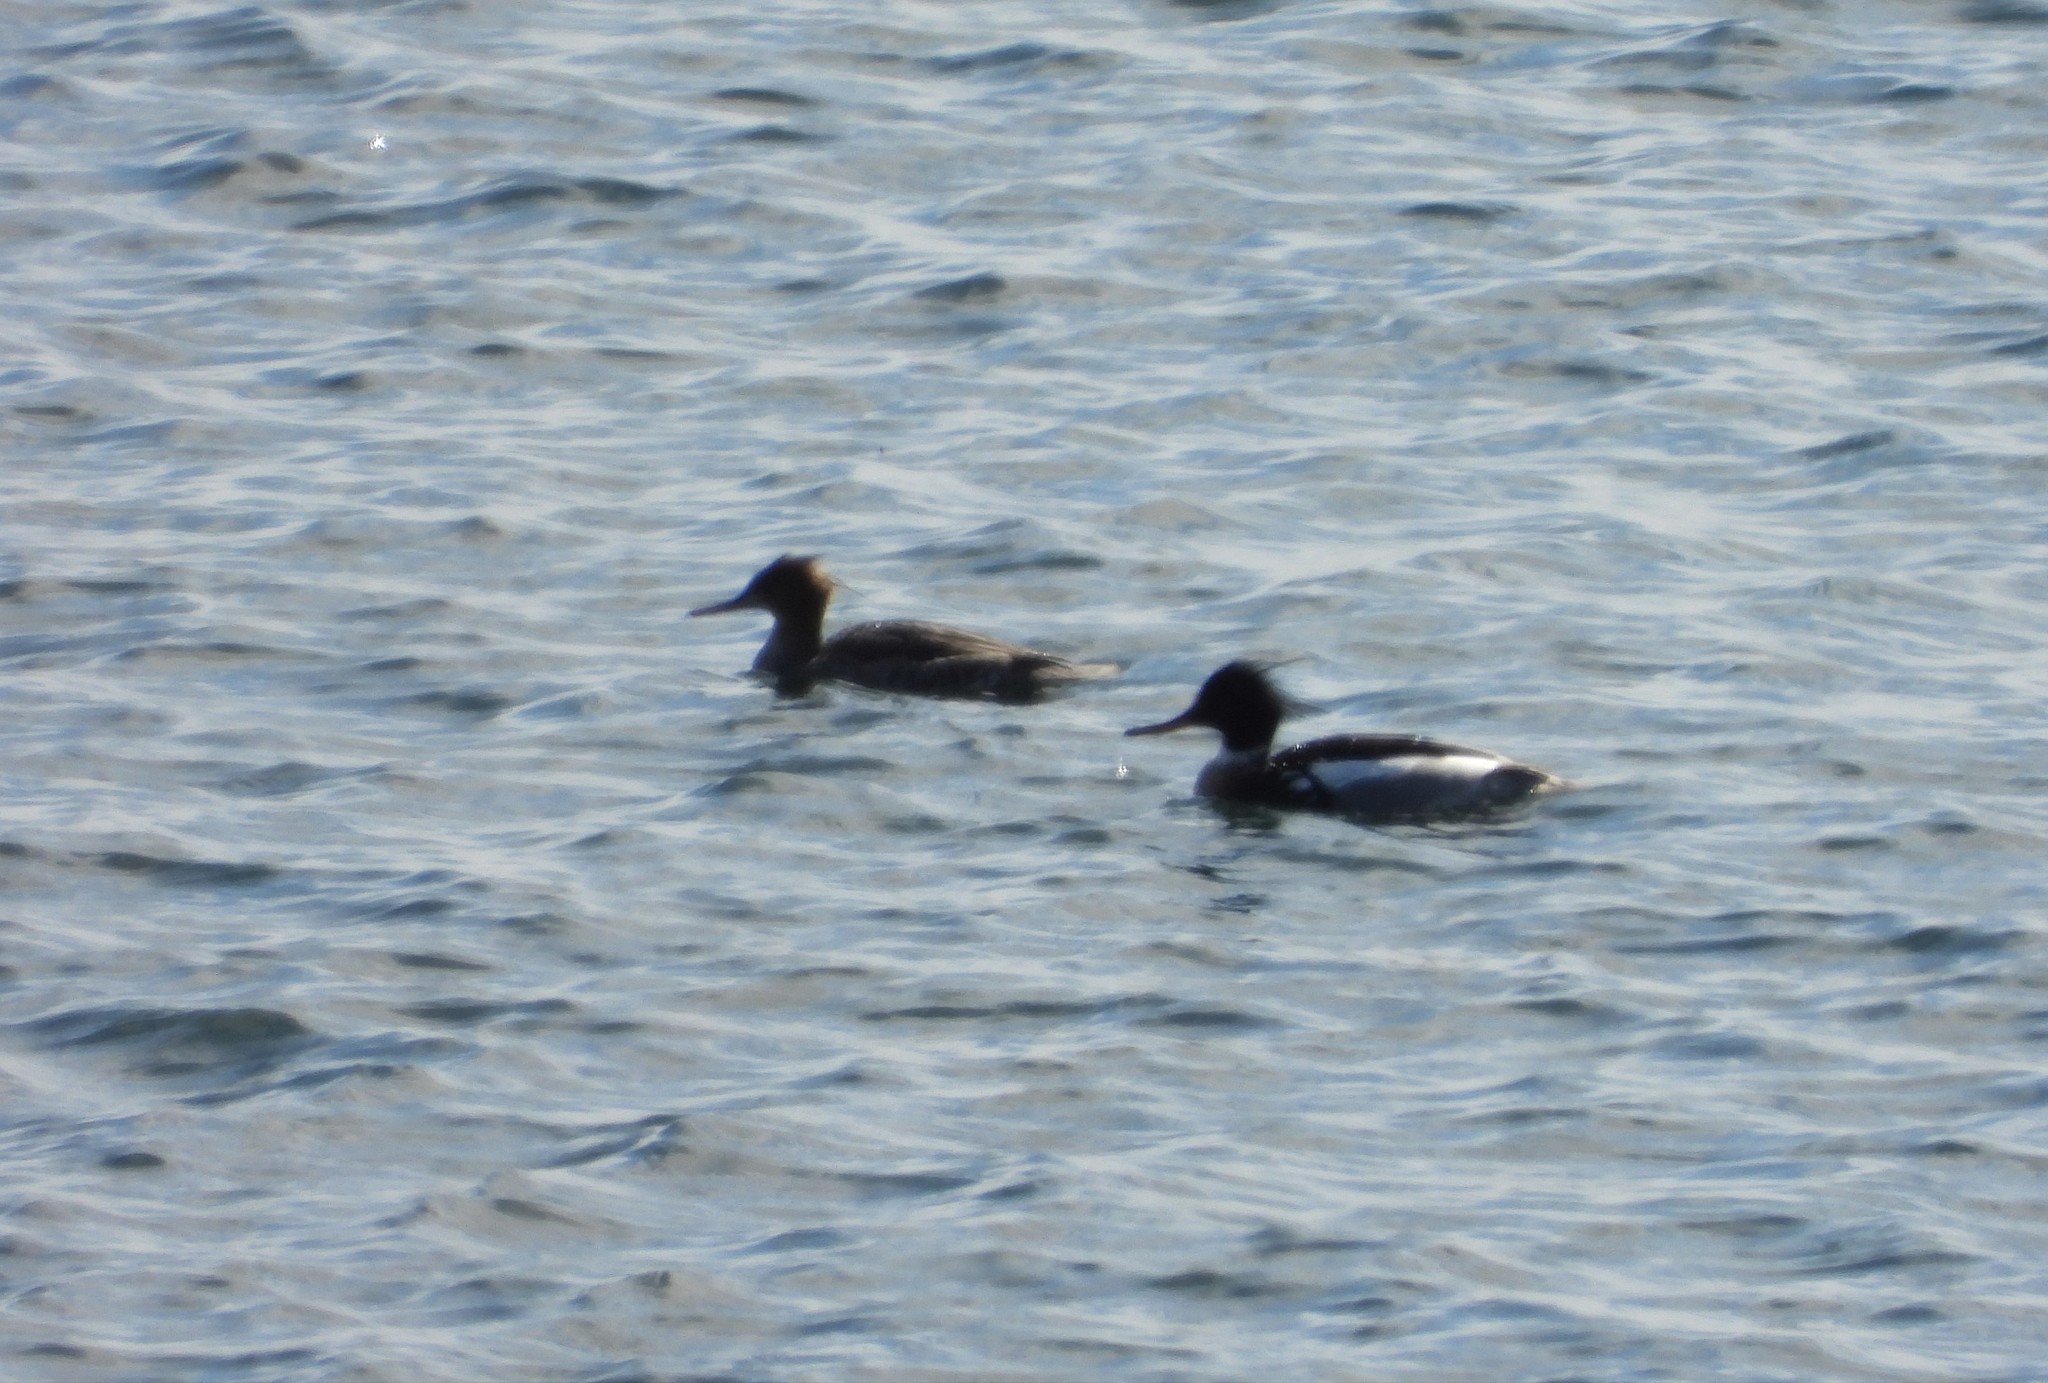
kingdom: Animalia
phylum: Chordata
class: Aves
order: Anseriformes
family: Anatidae
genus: Mergus
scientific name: Mergus serrator
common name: Red-breasted merganser
